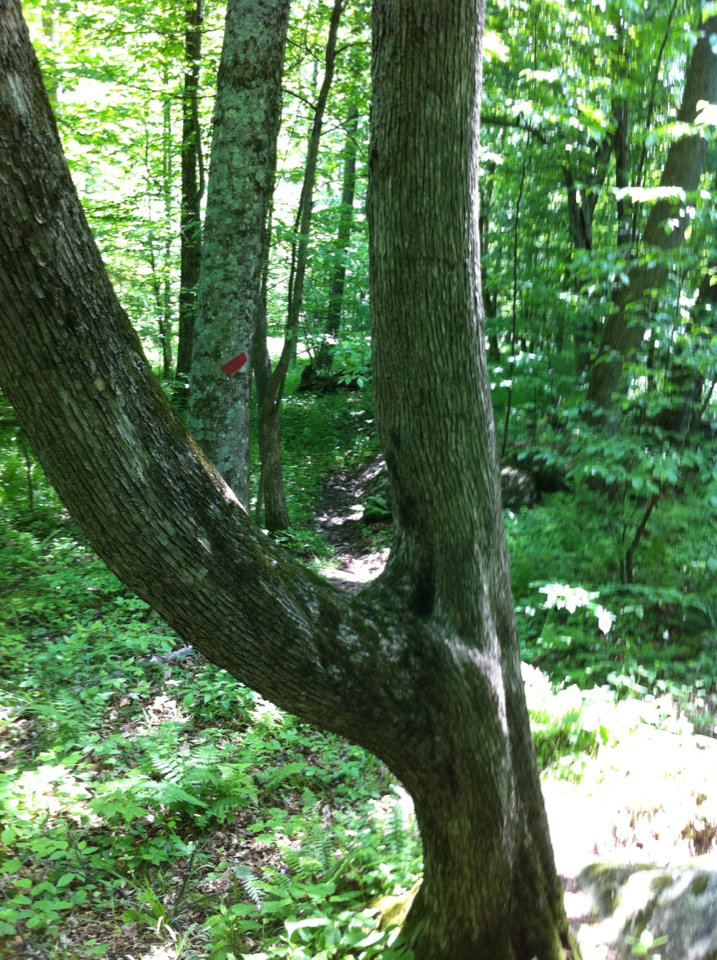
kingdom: Plantae
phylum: Tracheophyta
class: Magnoliopsida
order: Fagales
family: Betulaceae
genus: Ostrya
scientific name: Ostrya virginiana
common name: Ironwood
